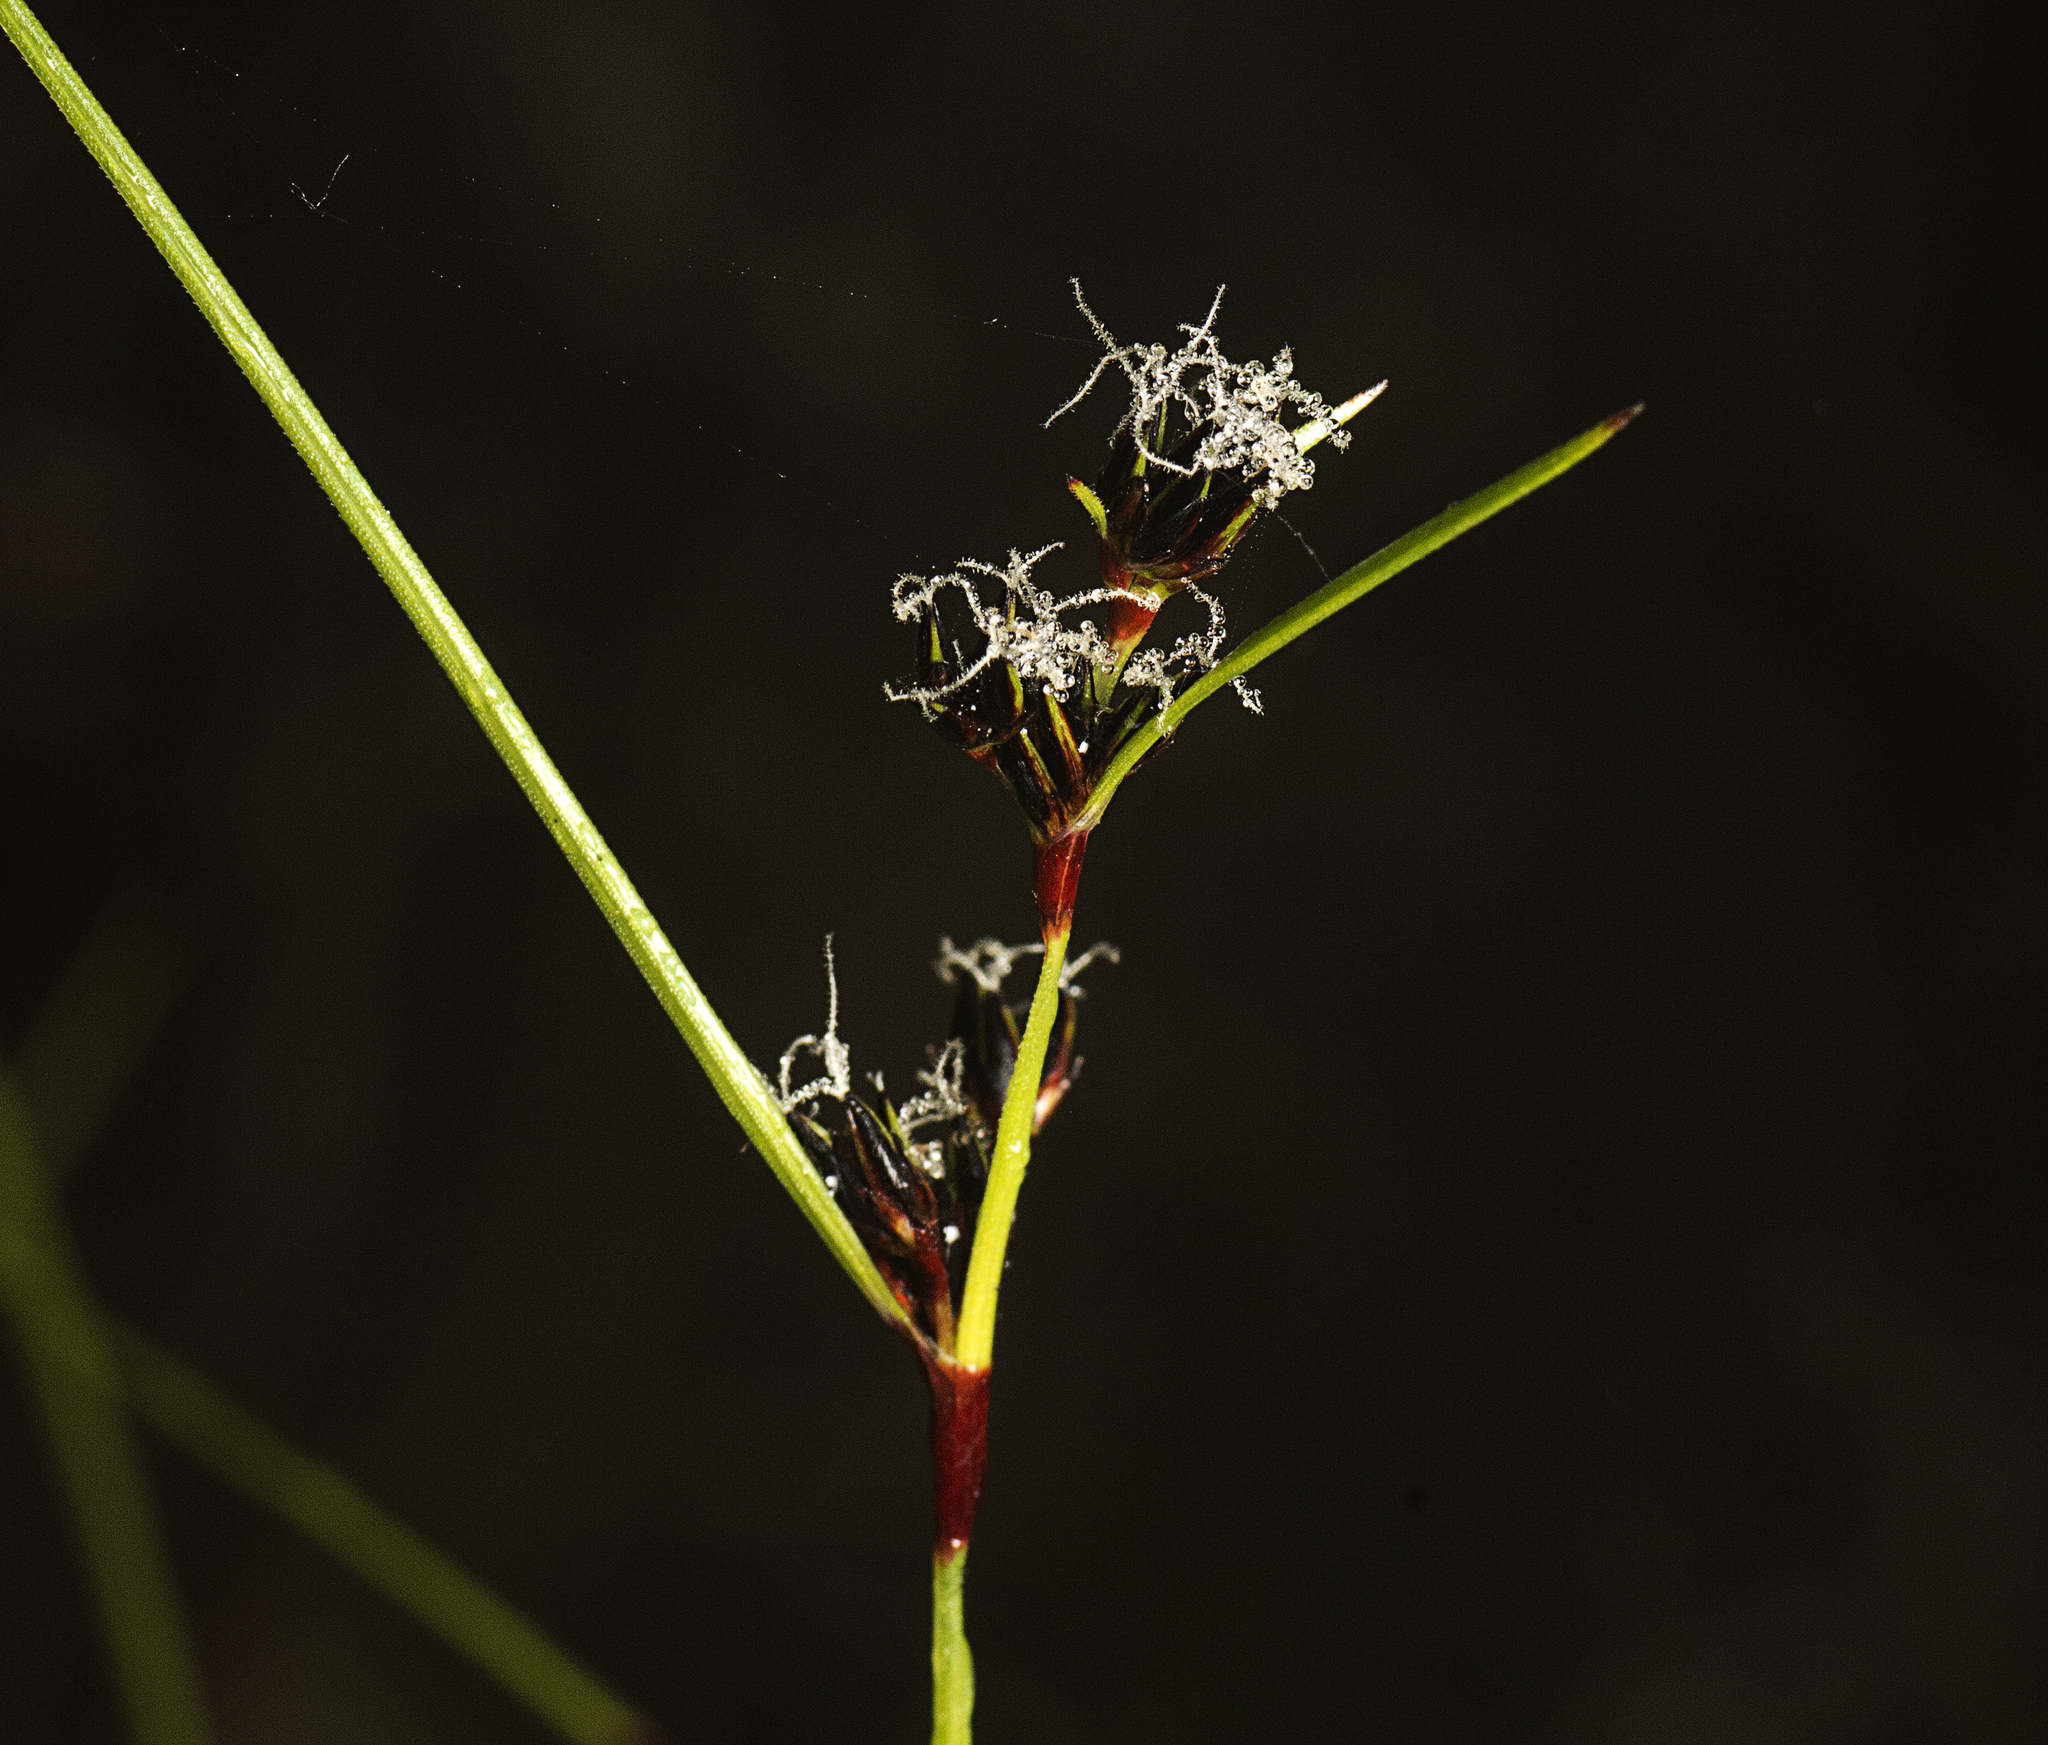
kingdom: Plantae
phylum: Tracheophyta
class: Liliopsida
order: Poales
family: Cyperaceae
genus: Schoenus
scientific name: Schoenus apogon
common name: Smooth bogrush
